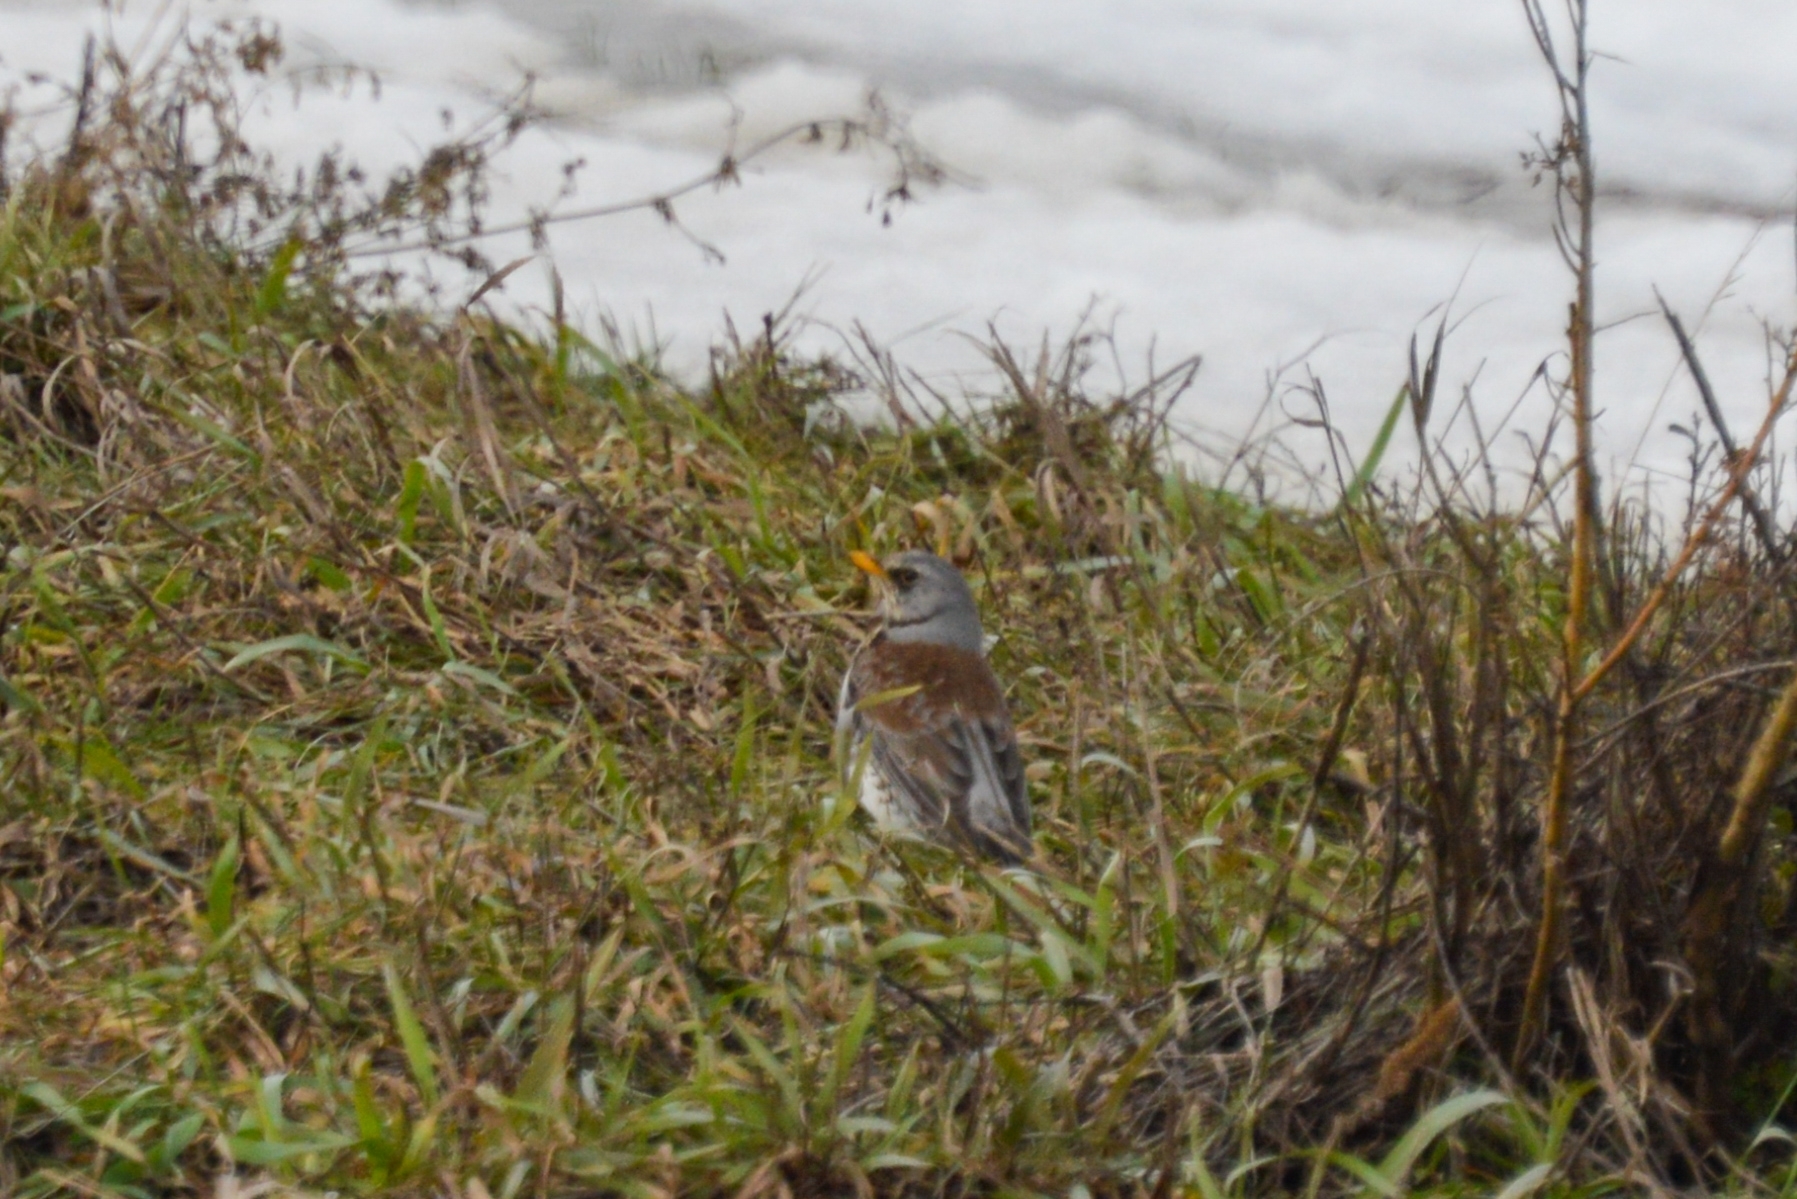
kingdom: Animalia
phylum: Chordata
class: Aves
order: Passeriformes
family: Turdidae
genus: Turdus
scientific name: Turdus pilaris
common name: Fieldfare
